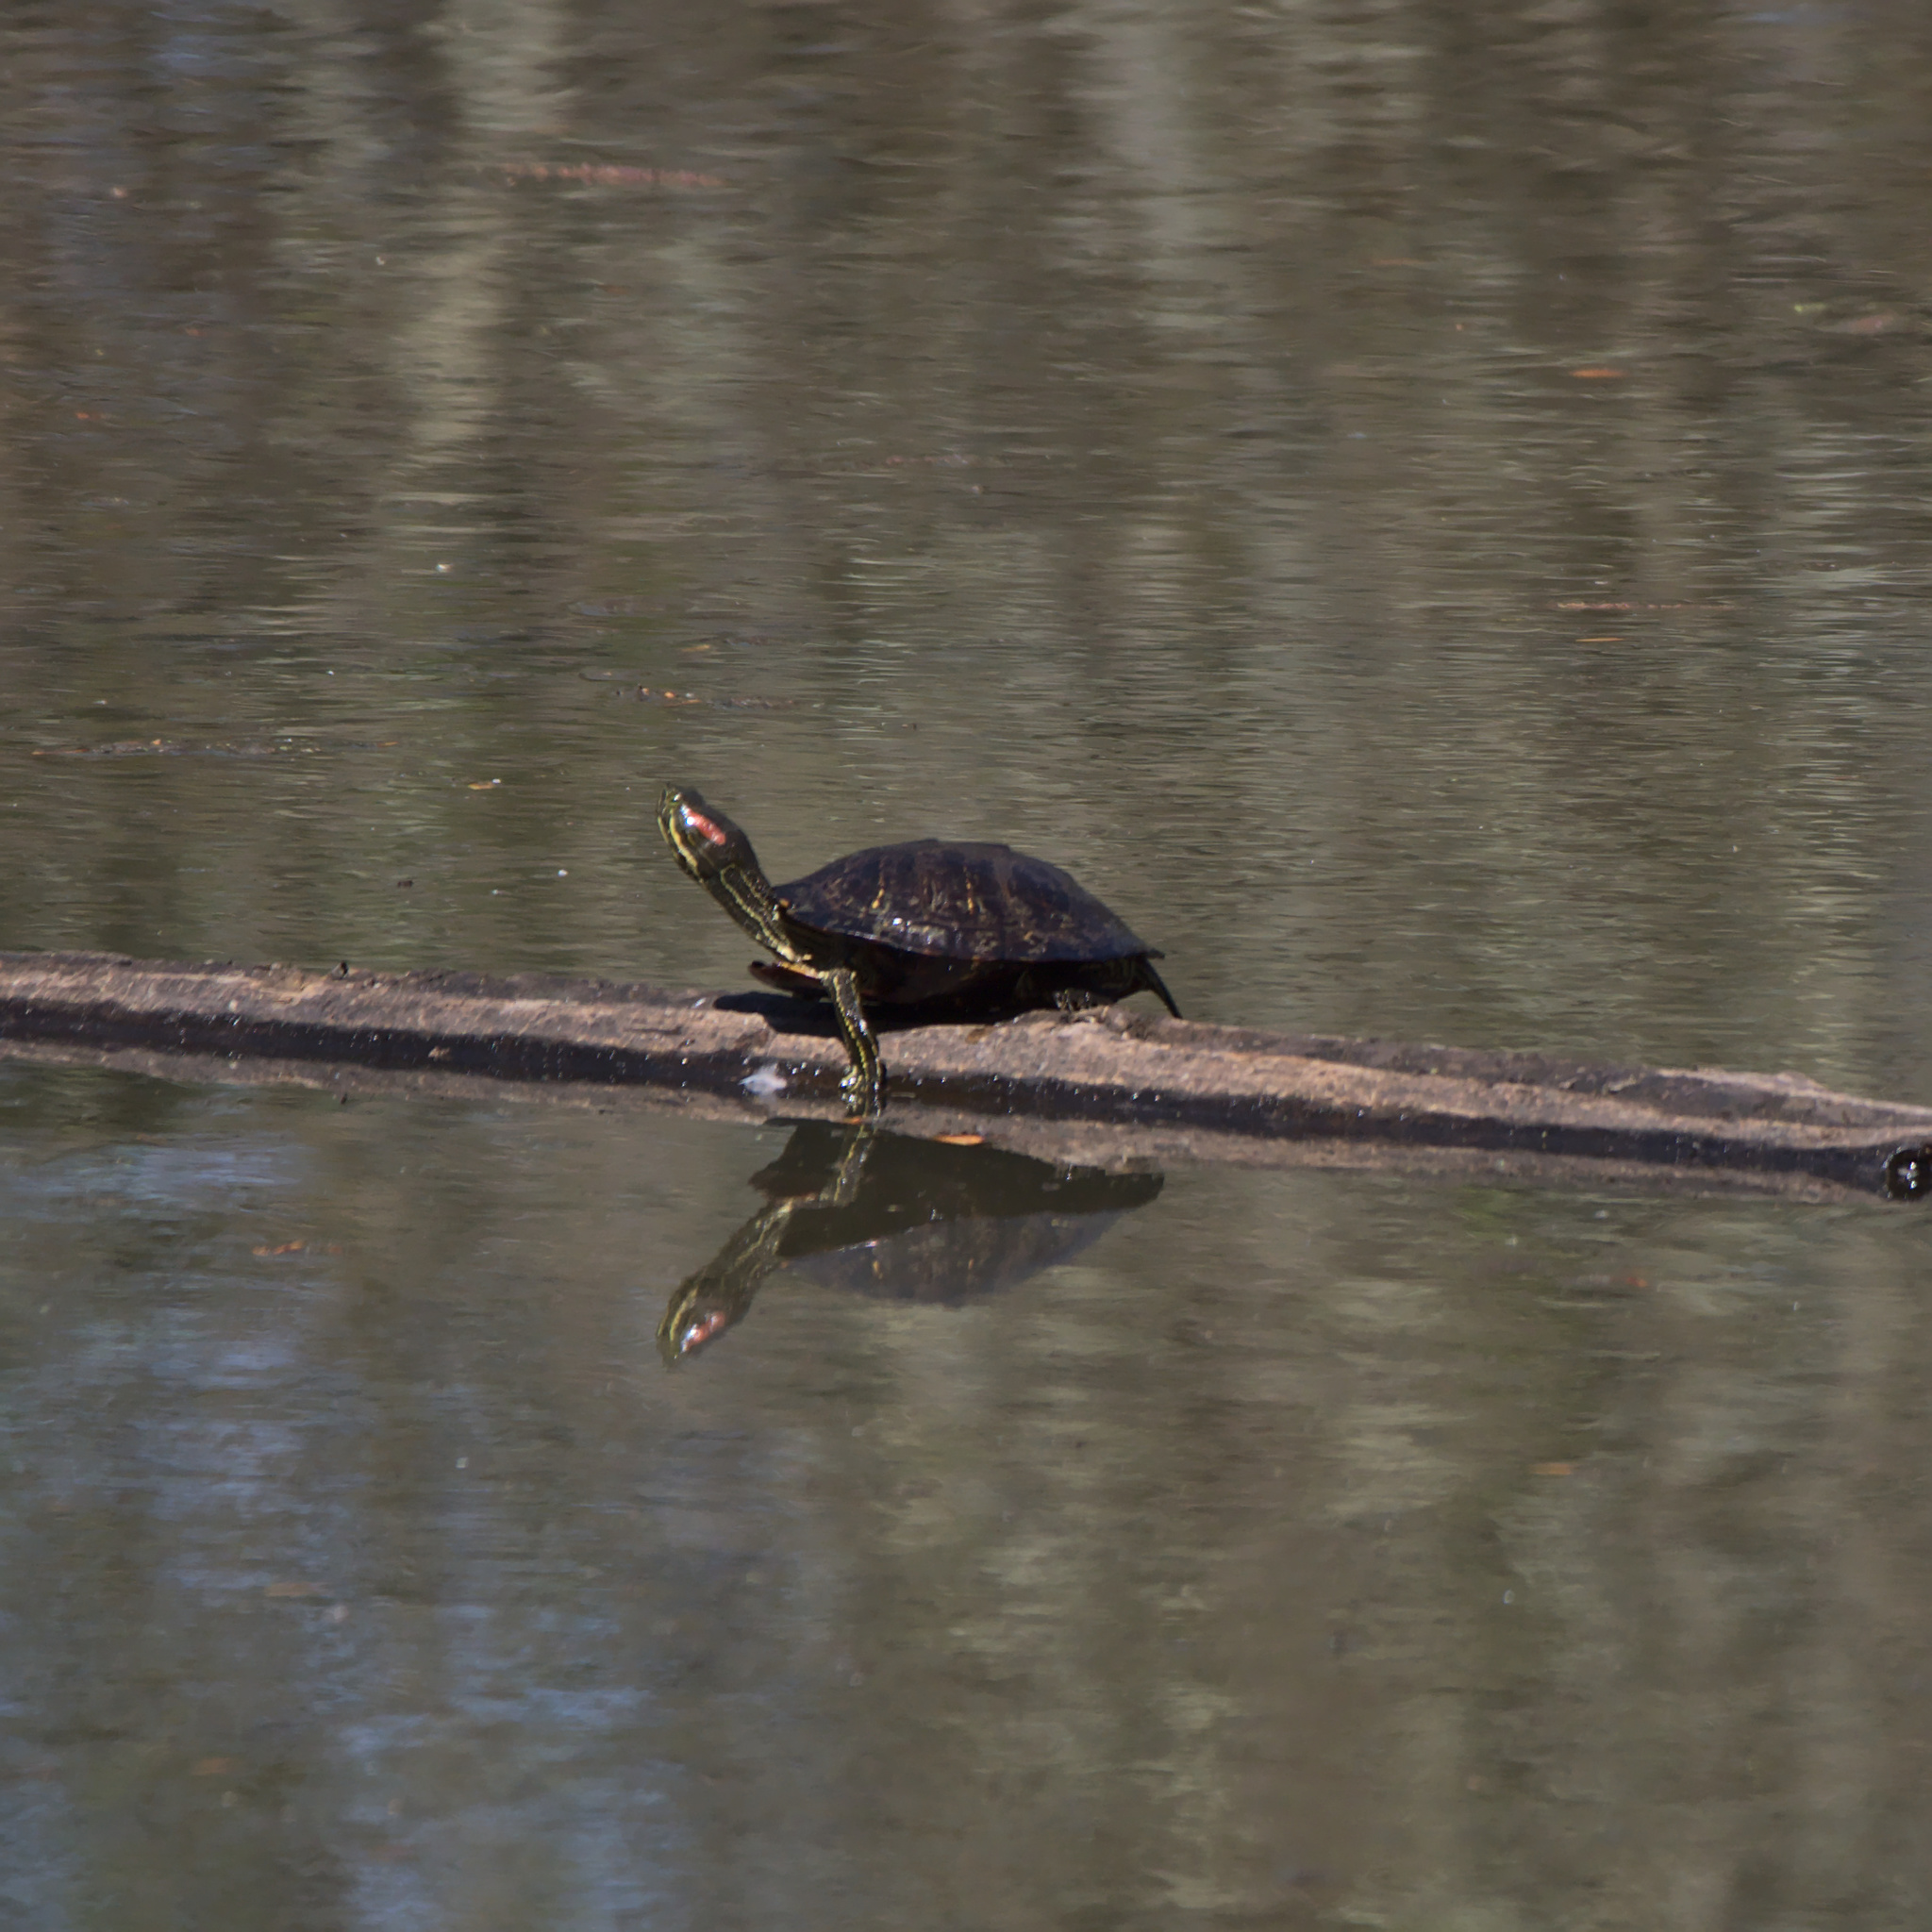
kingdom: Animalia
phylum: Chordata
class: Testudines
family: Emydidae
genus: Trachemys
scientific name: Trachemys scripta
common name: Slider
